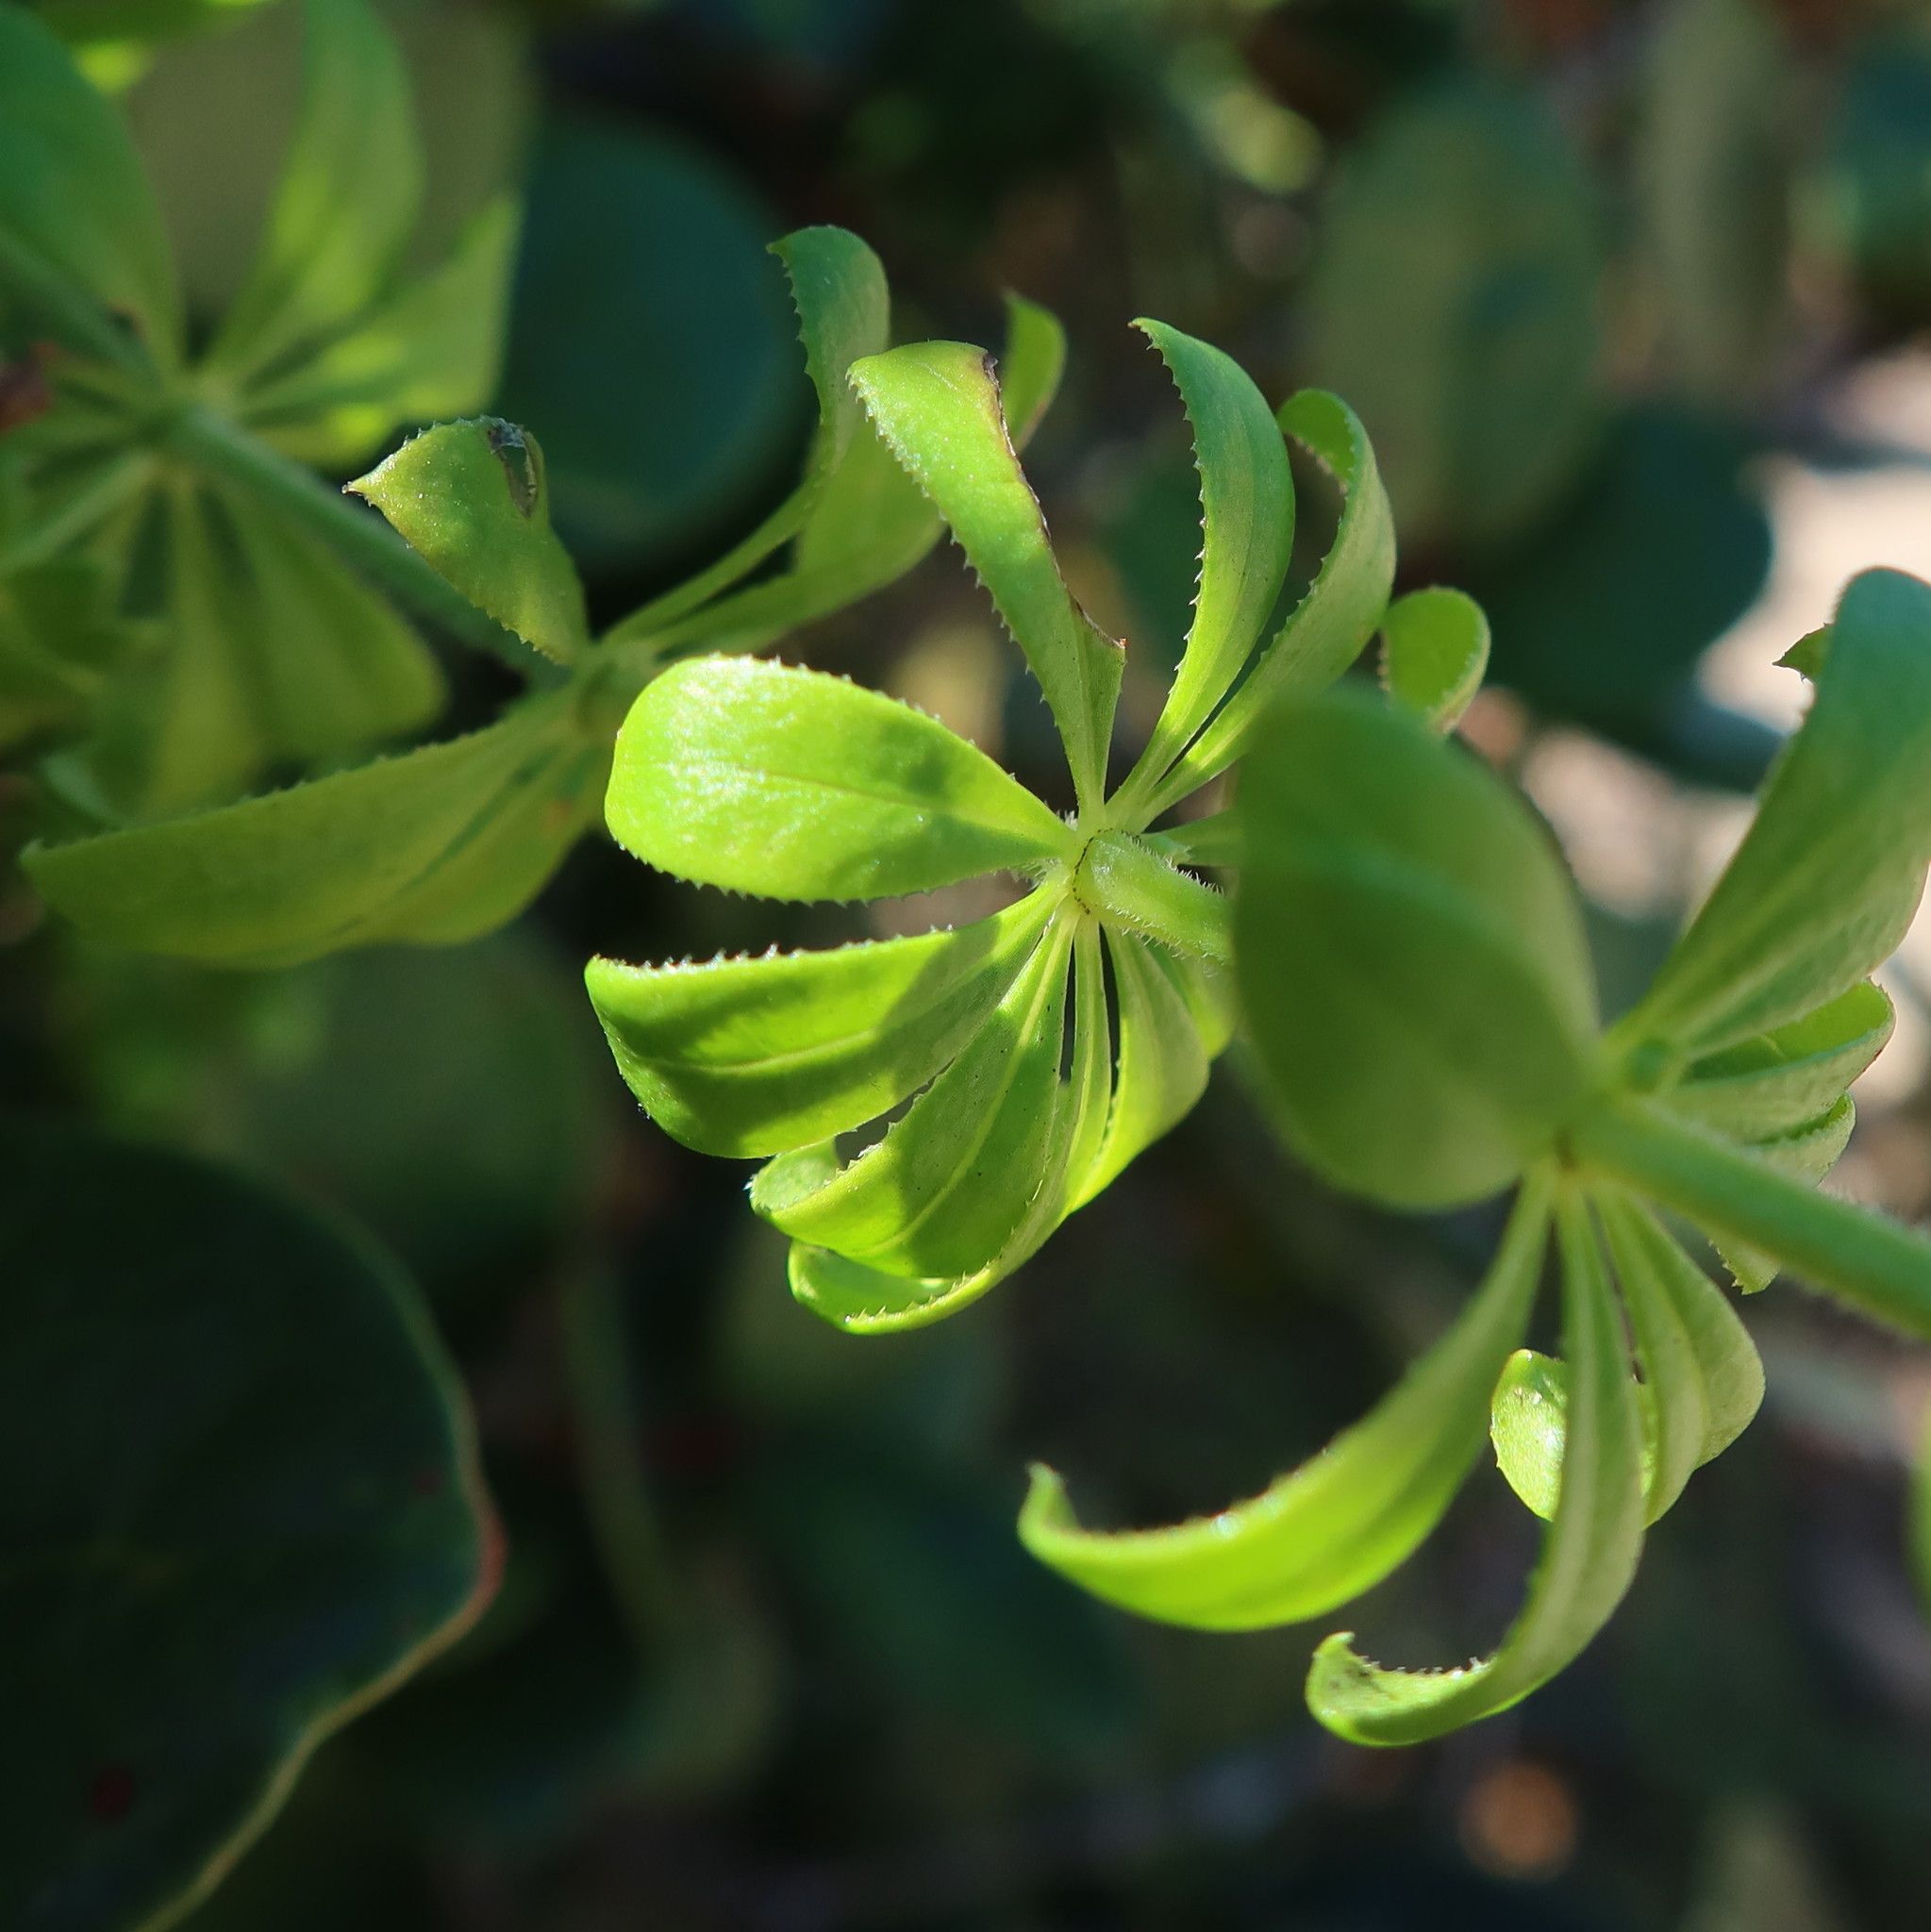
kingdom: Plantae
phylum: Tracheophyta
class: Magnoliopsida
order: Gentianales
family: Rubiaceae
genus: Galium
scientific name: Galium tomentosum
